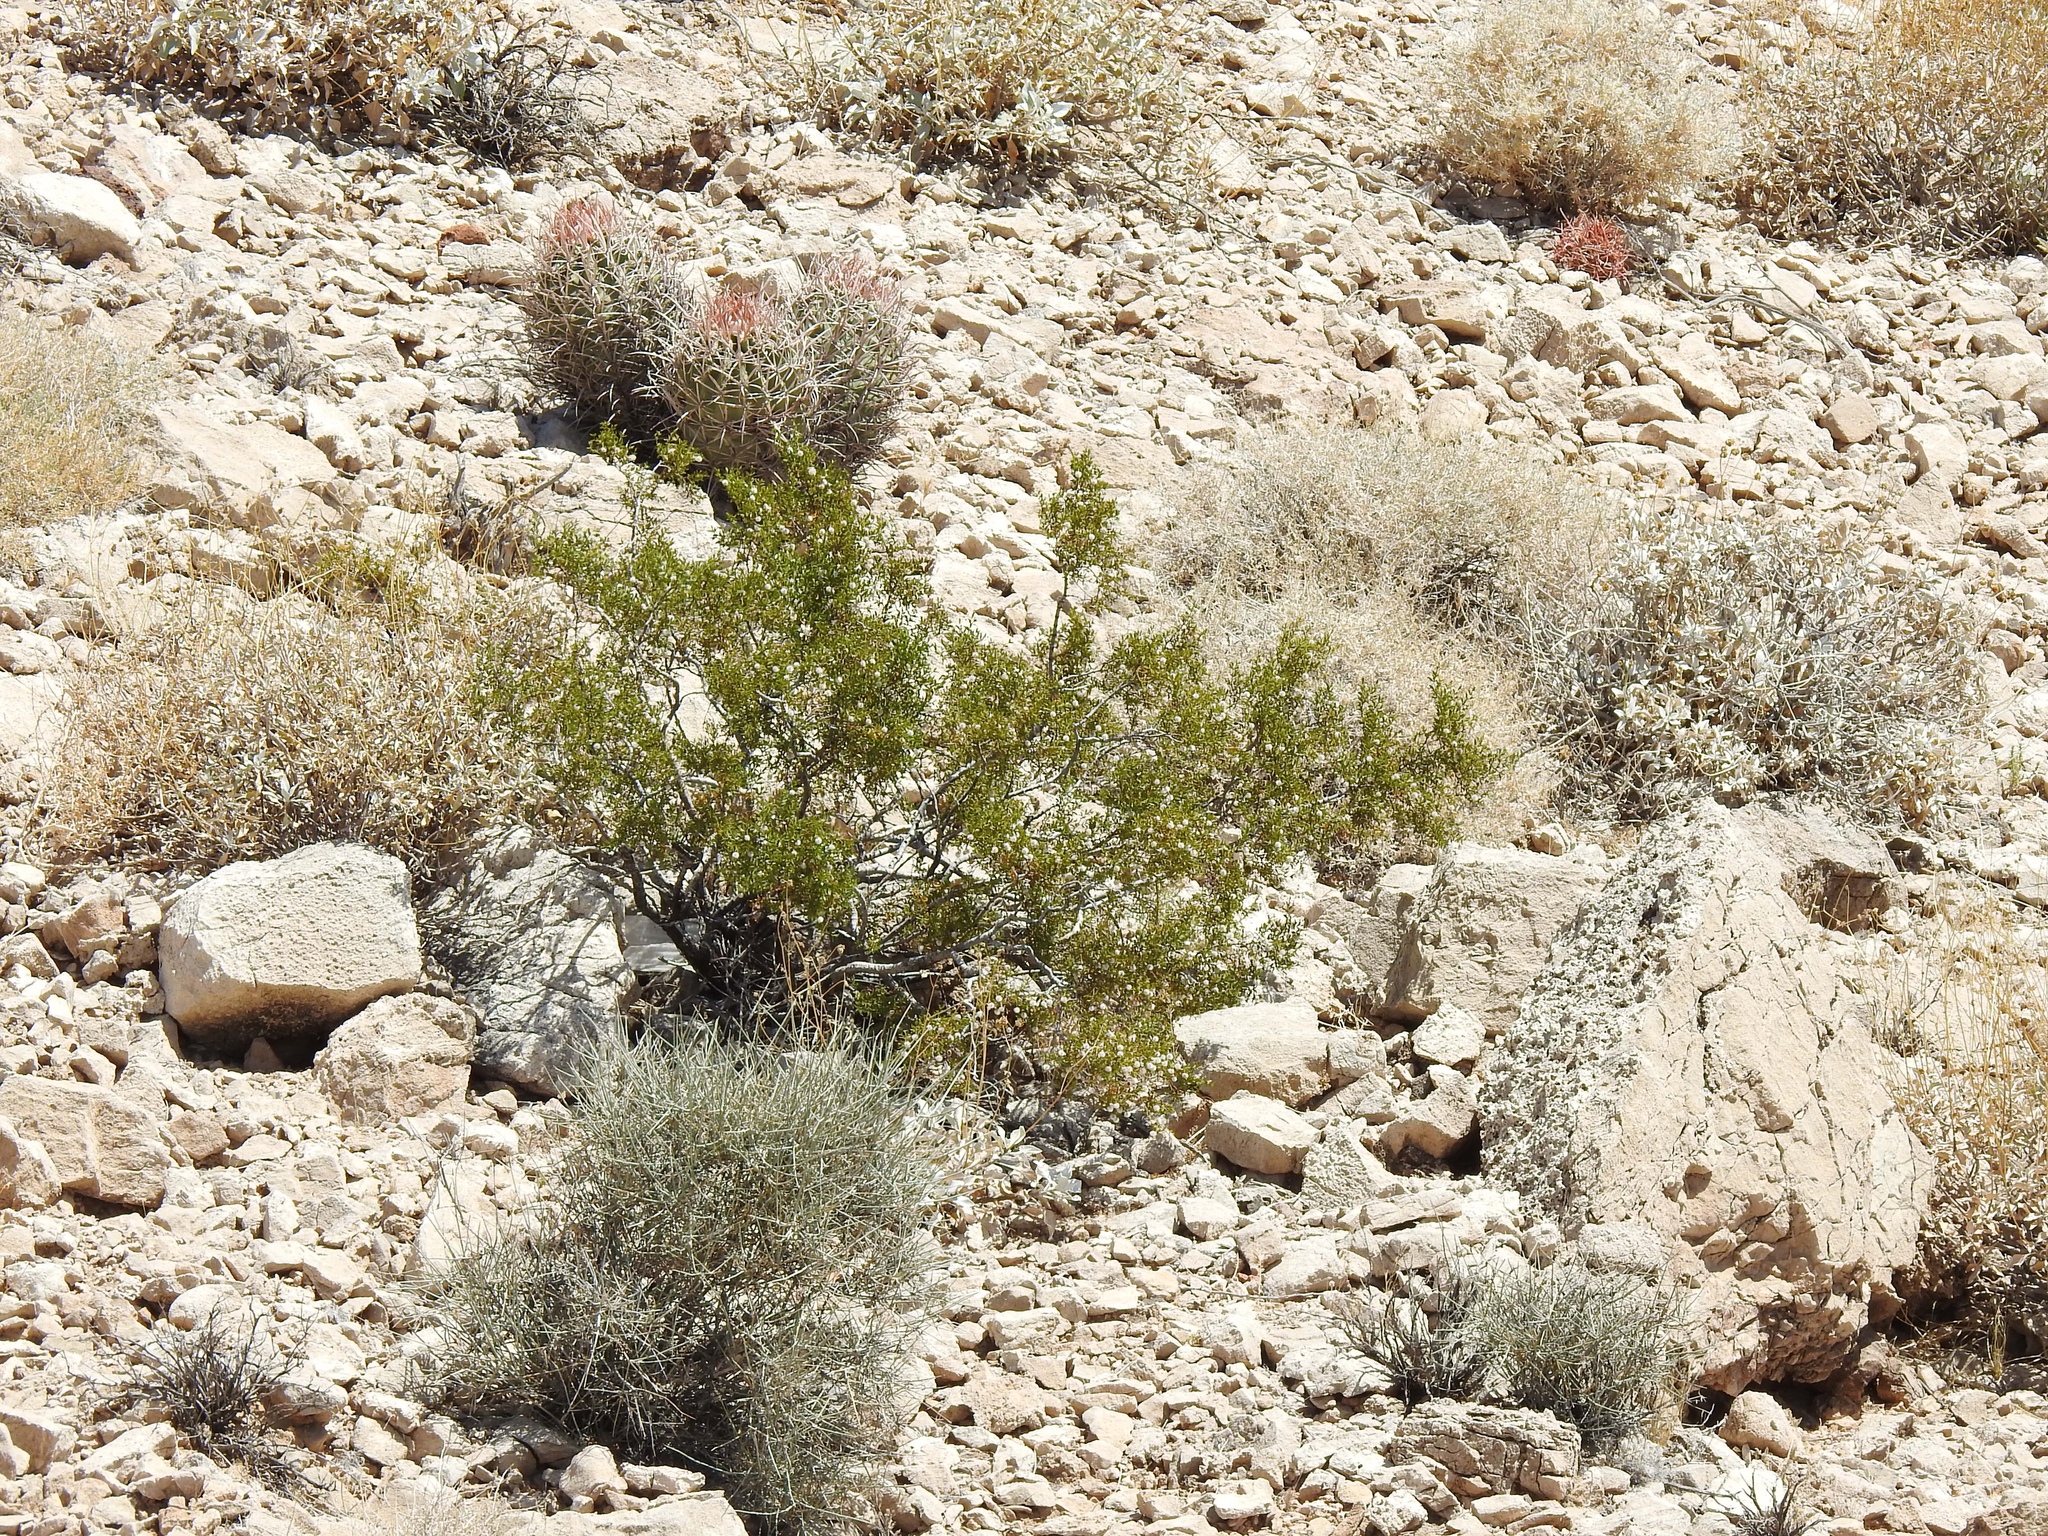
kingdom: Plantae
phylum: Tracheophyta
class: Magnoliopsida
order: Zygophyllales
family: Zygophyllaceae
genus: Larrea
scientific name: Larrea tridentata
